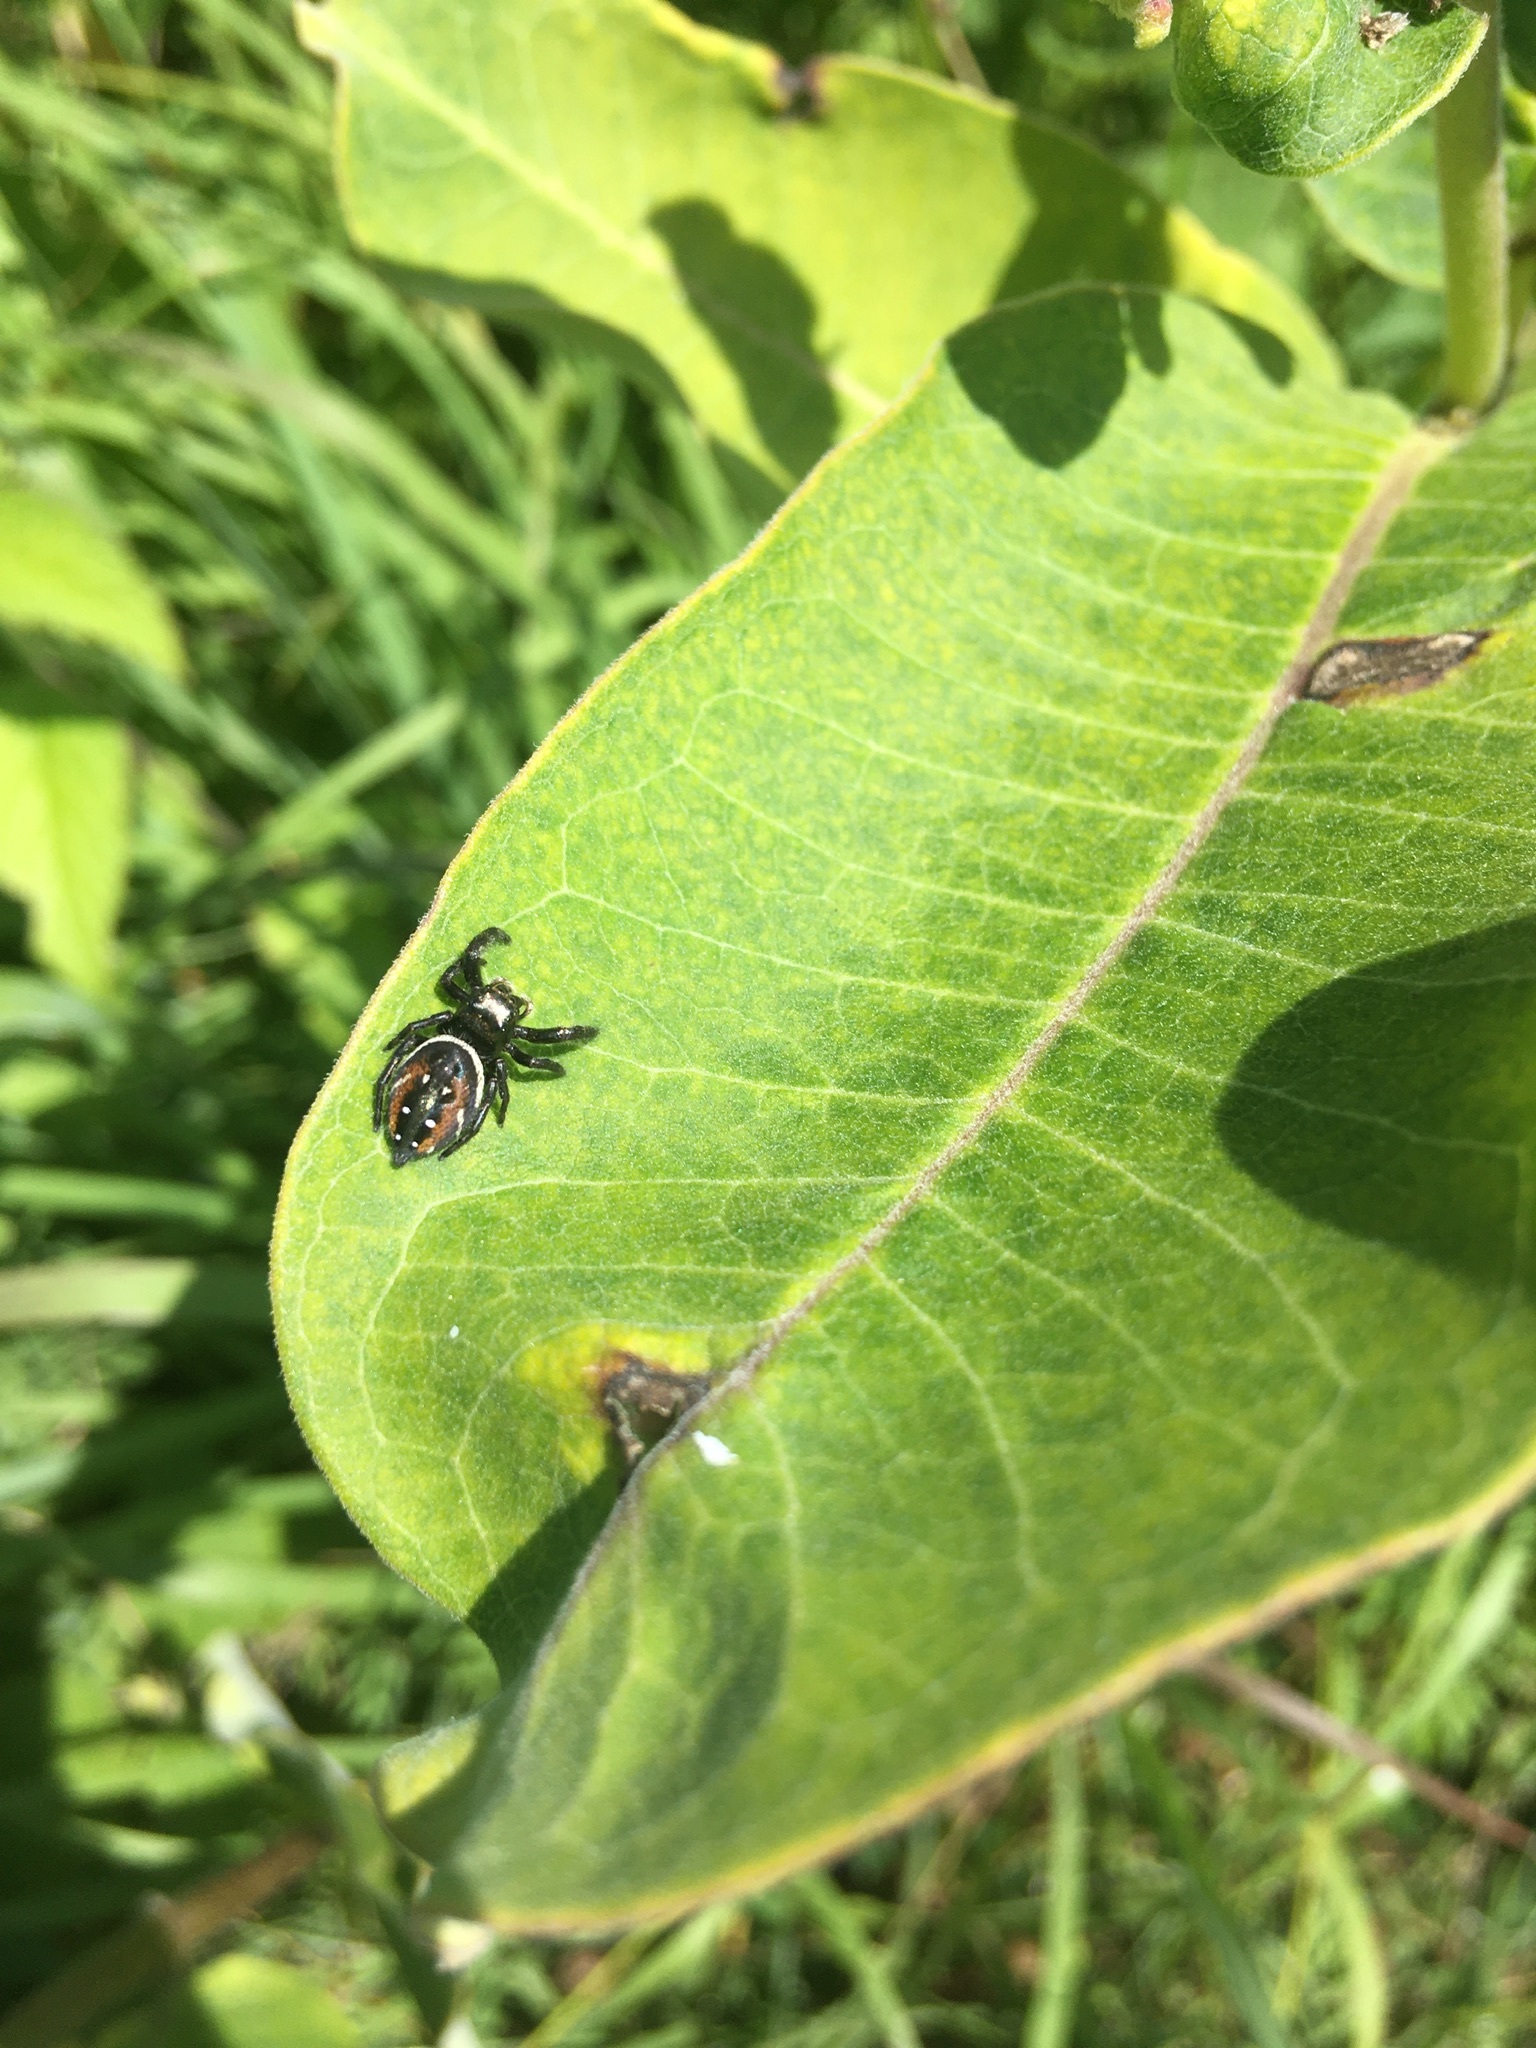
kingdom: Animalia
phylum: Arthropoda
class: Arachnida
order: Araneae
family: Salticidae
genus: Phidippus
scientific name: Phidippus clarus
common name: Brilliant jumping spider
